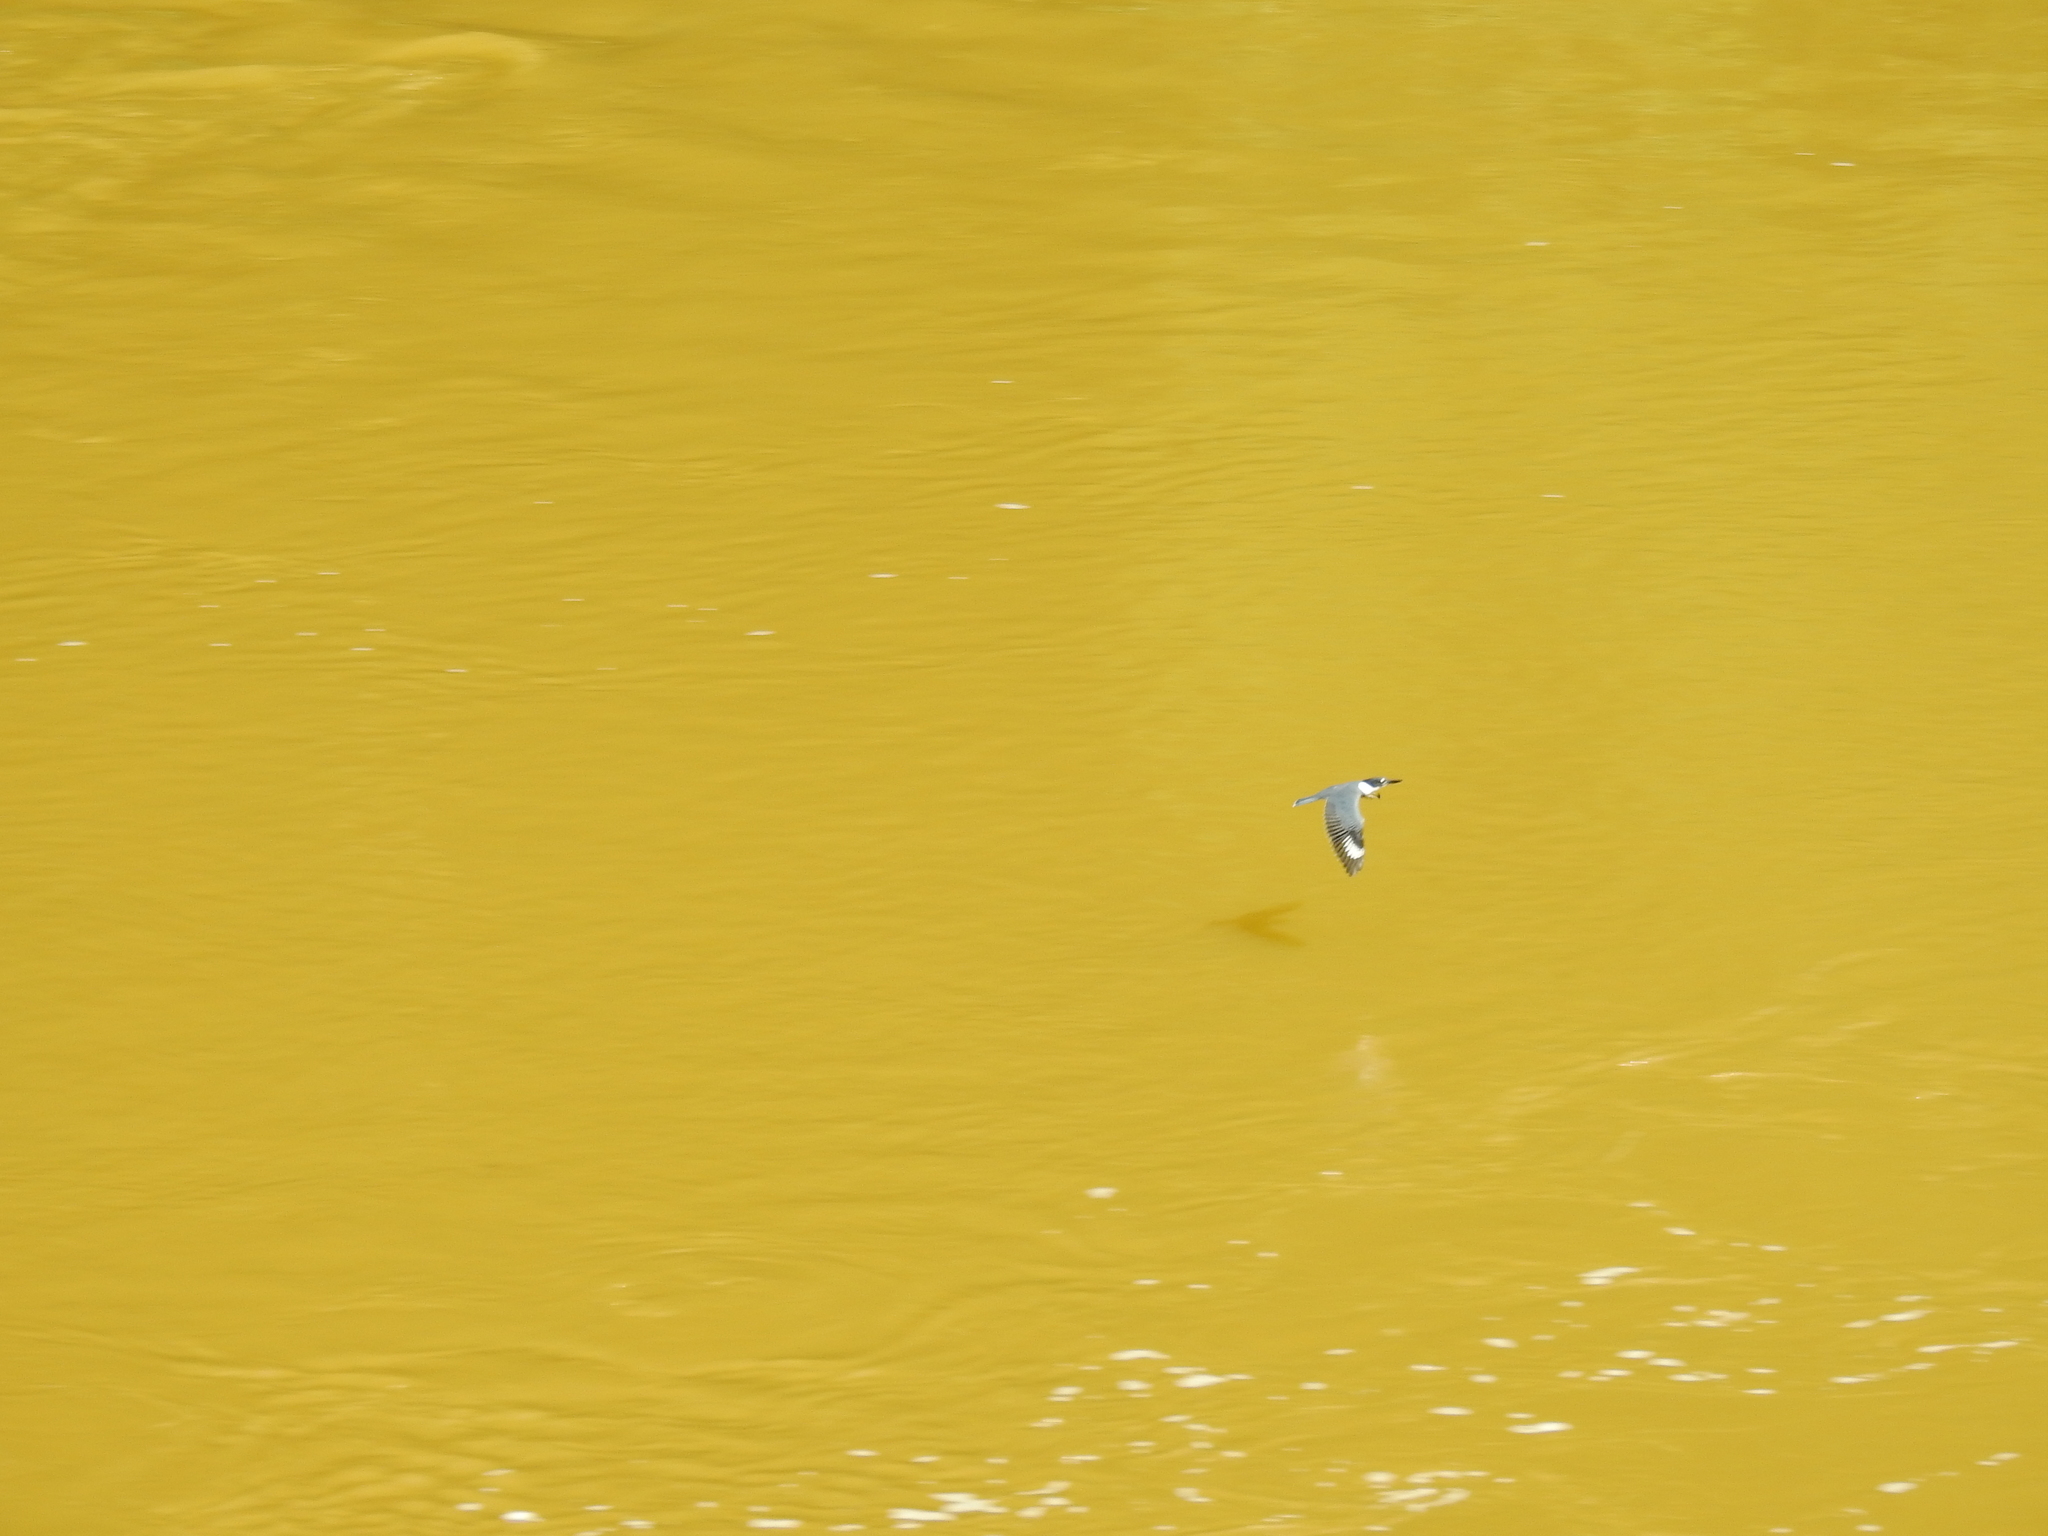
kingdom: Animalia
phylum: Chordata
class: Aves
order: Coraciiformes
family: Alcedinidae
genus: Megaceryle
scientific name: Megaceryle alcyon
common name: Belted kingfisher
